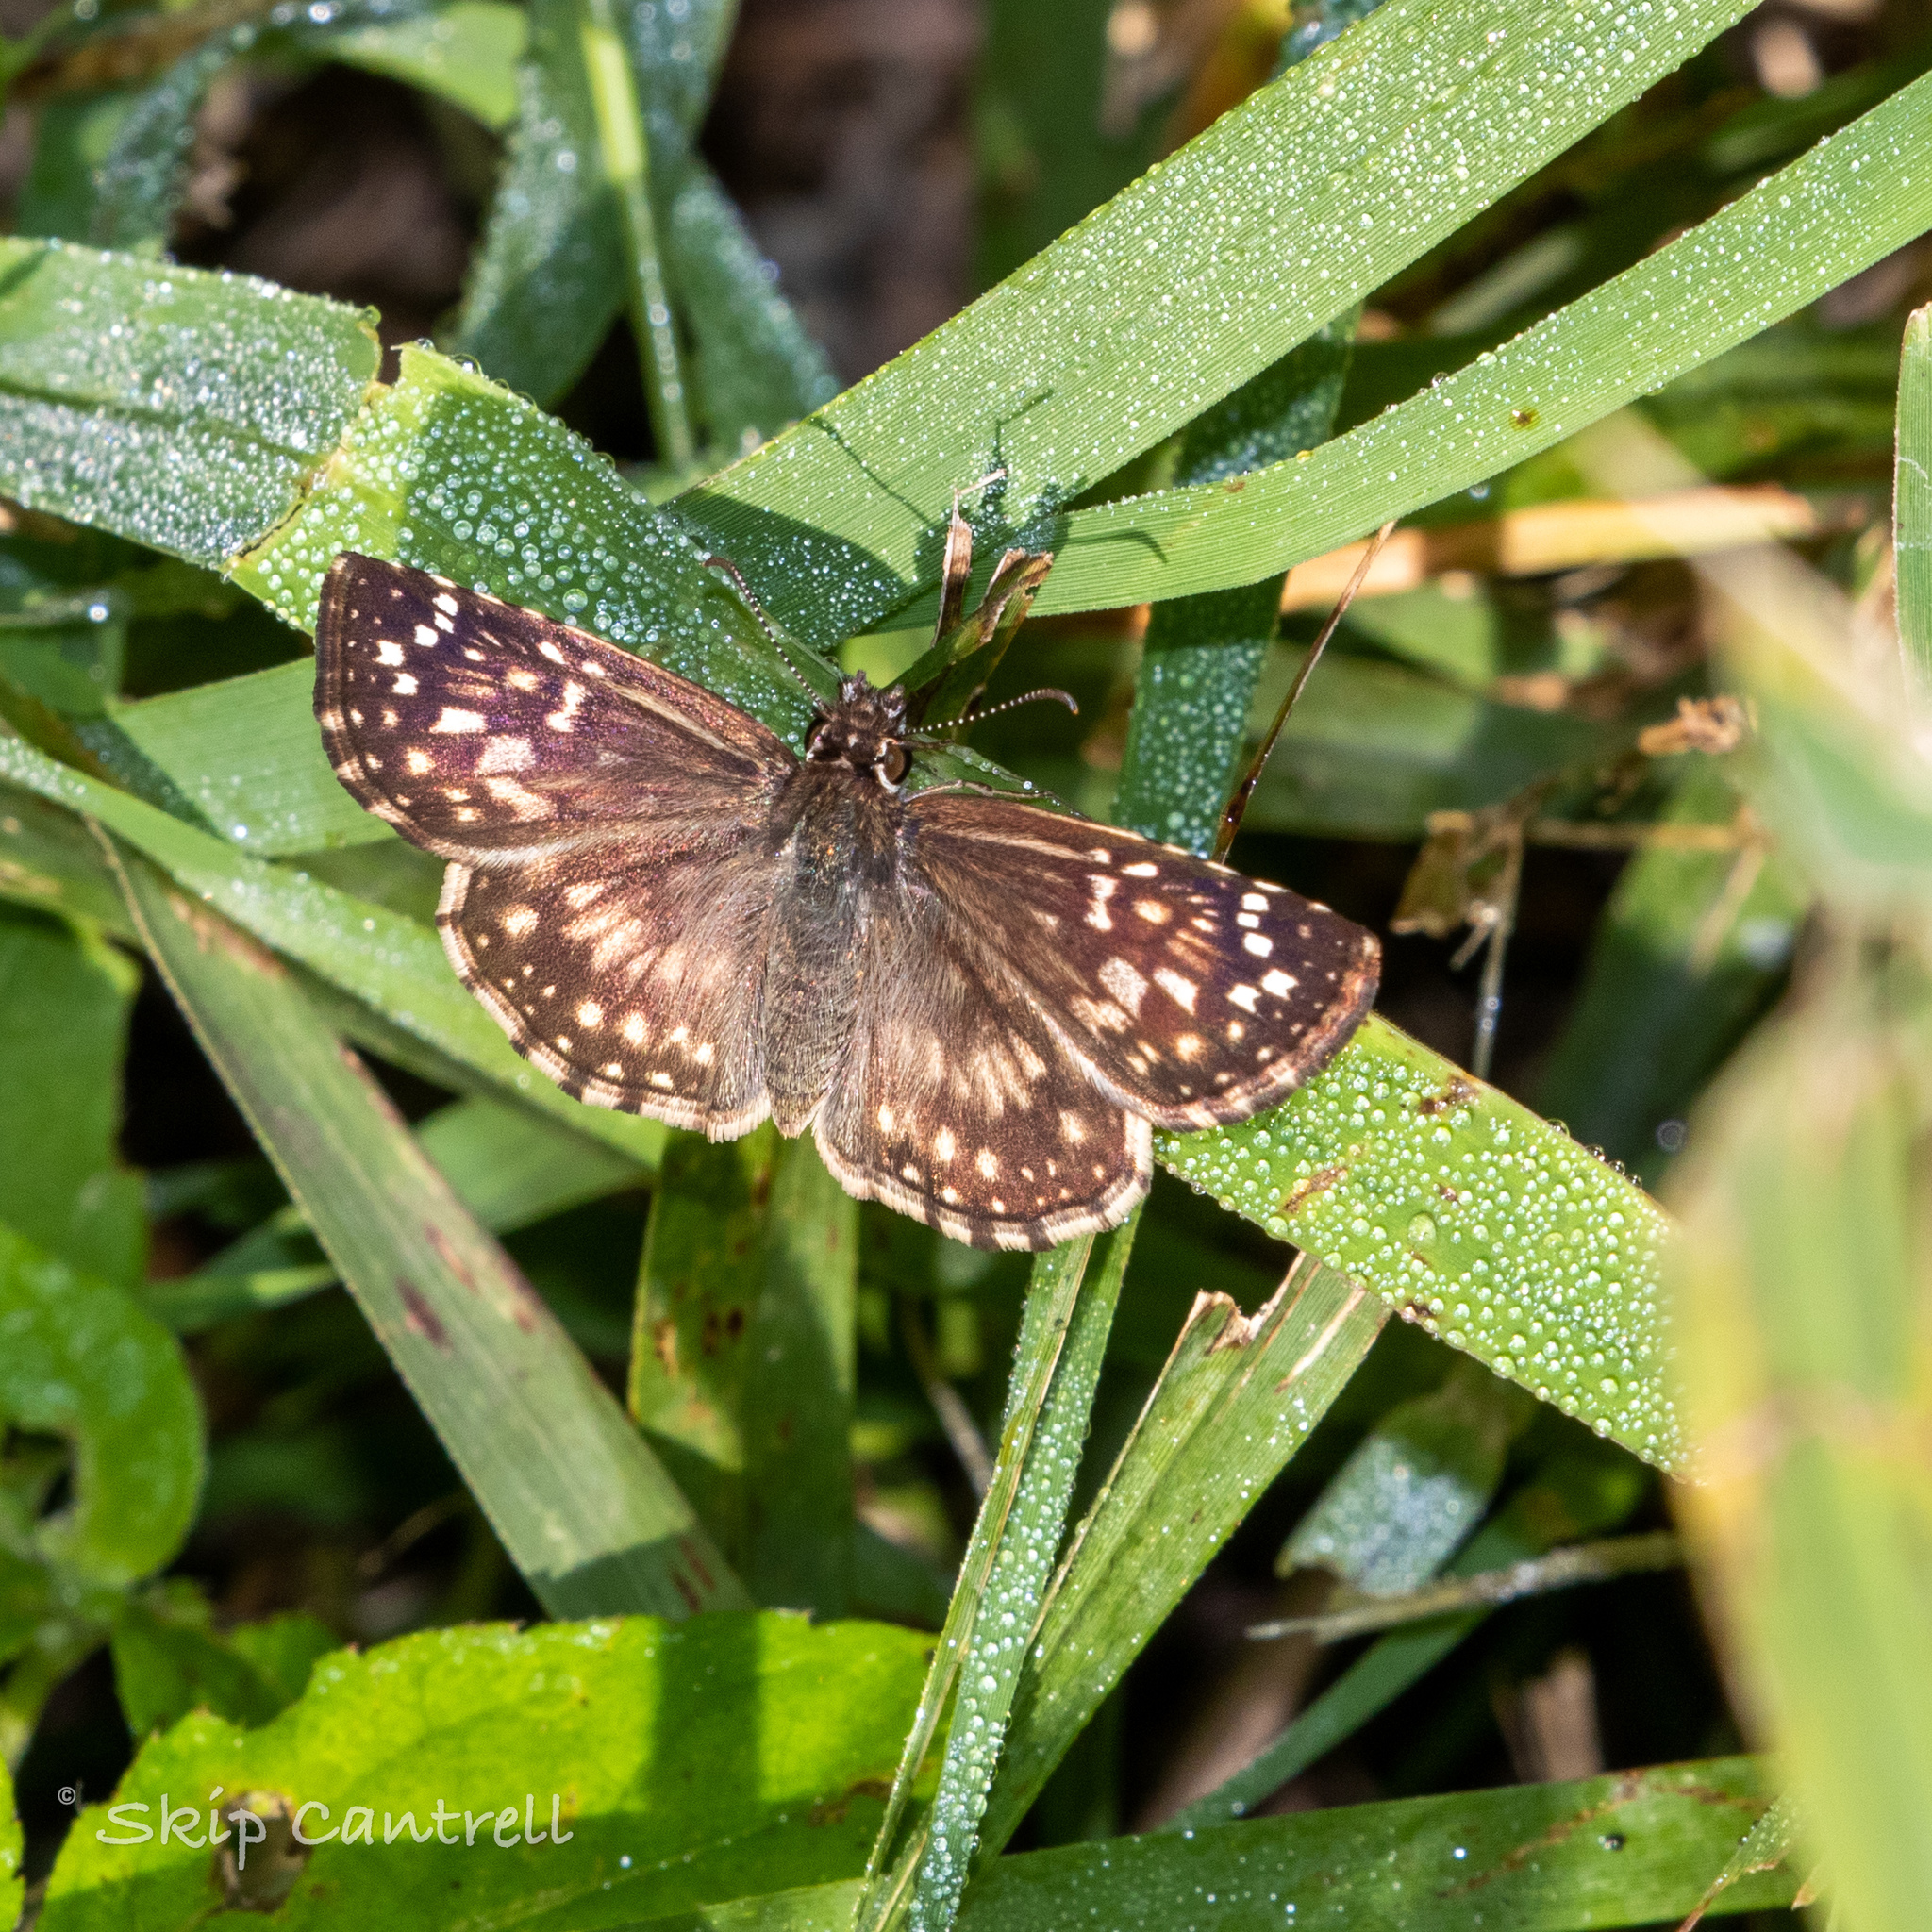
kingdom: Animalia
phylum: Arthropoda
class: Insecta
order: Lepidoptera
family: Hesperiidae
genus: Pyrgus
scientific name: Pyrgus oileus
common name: Tropical checkered-skipper
